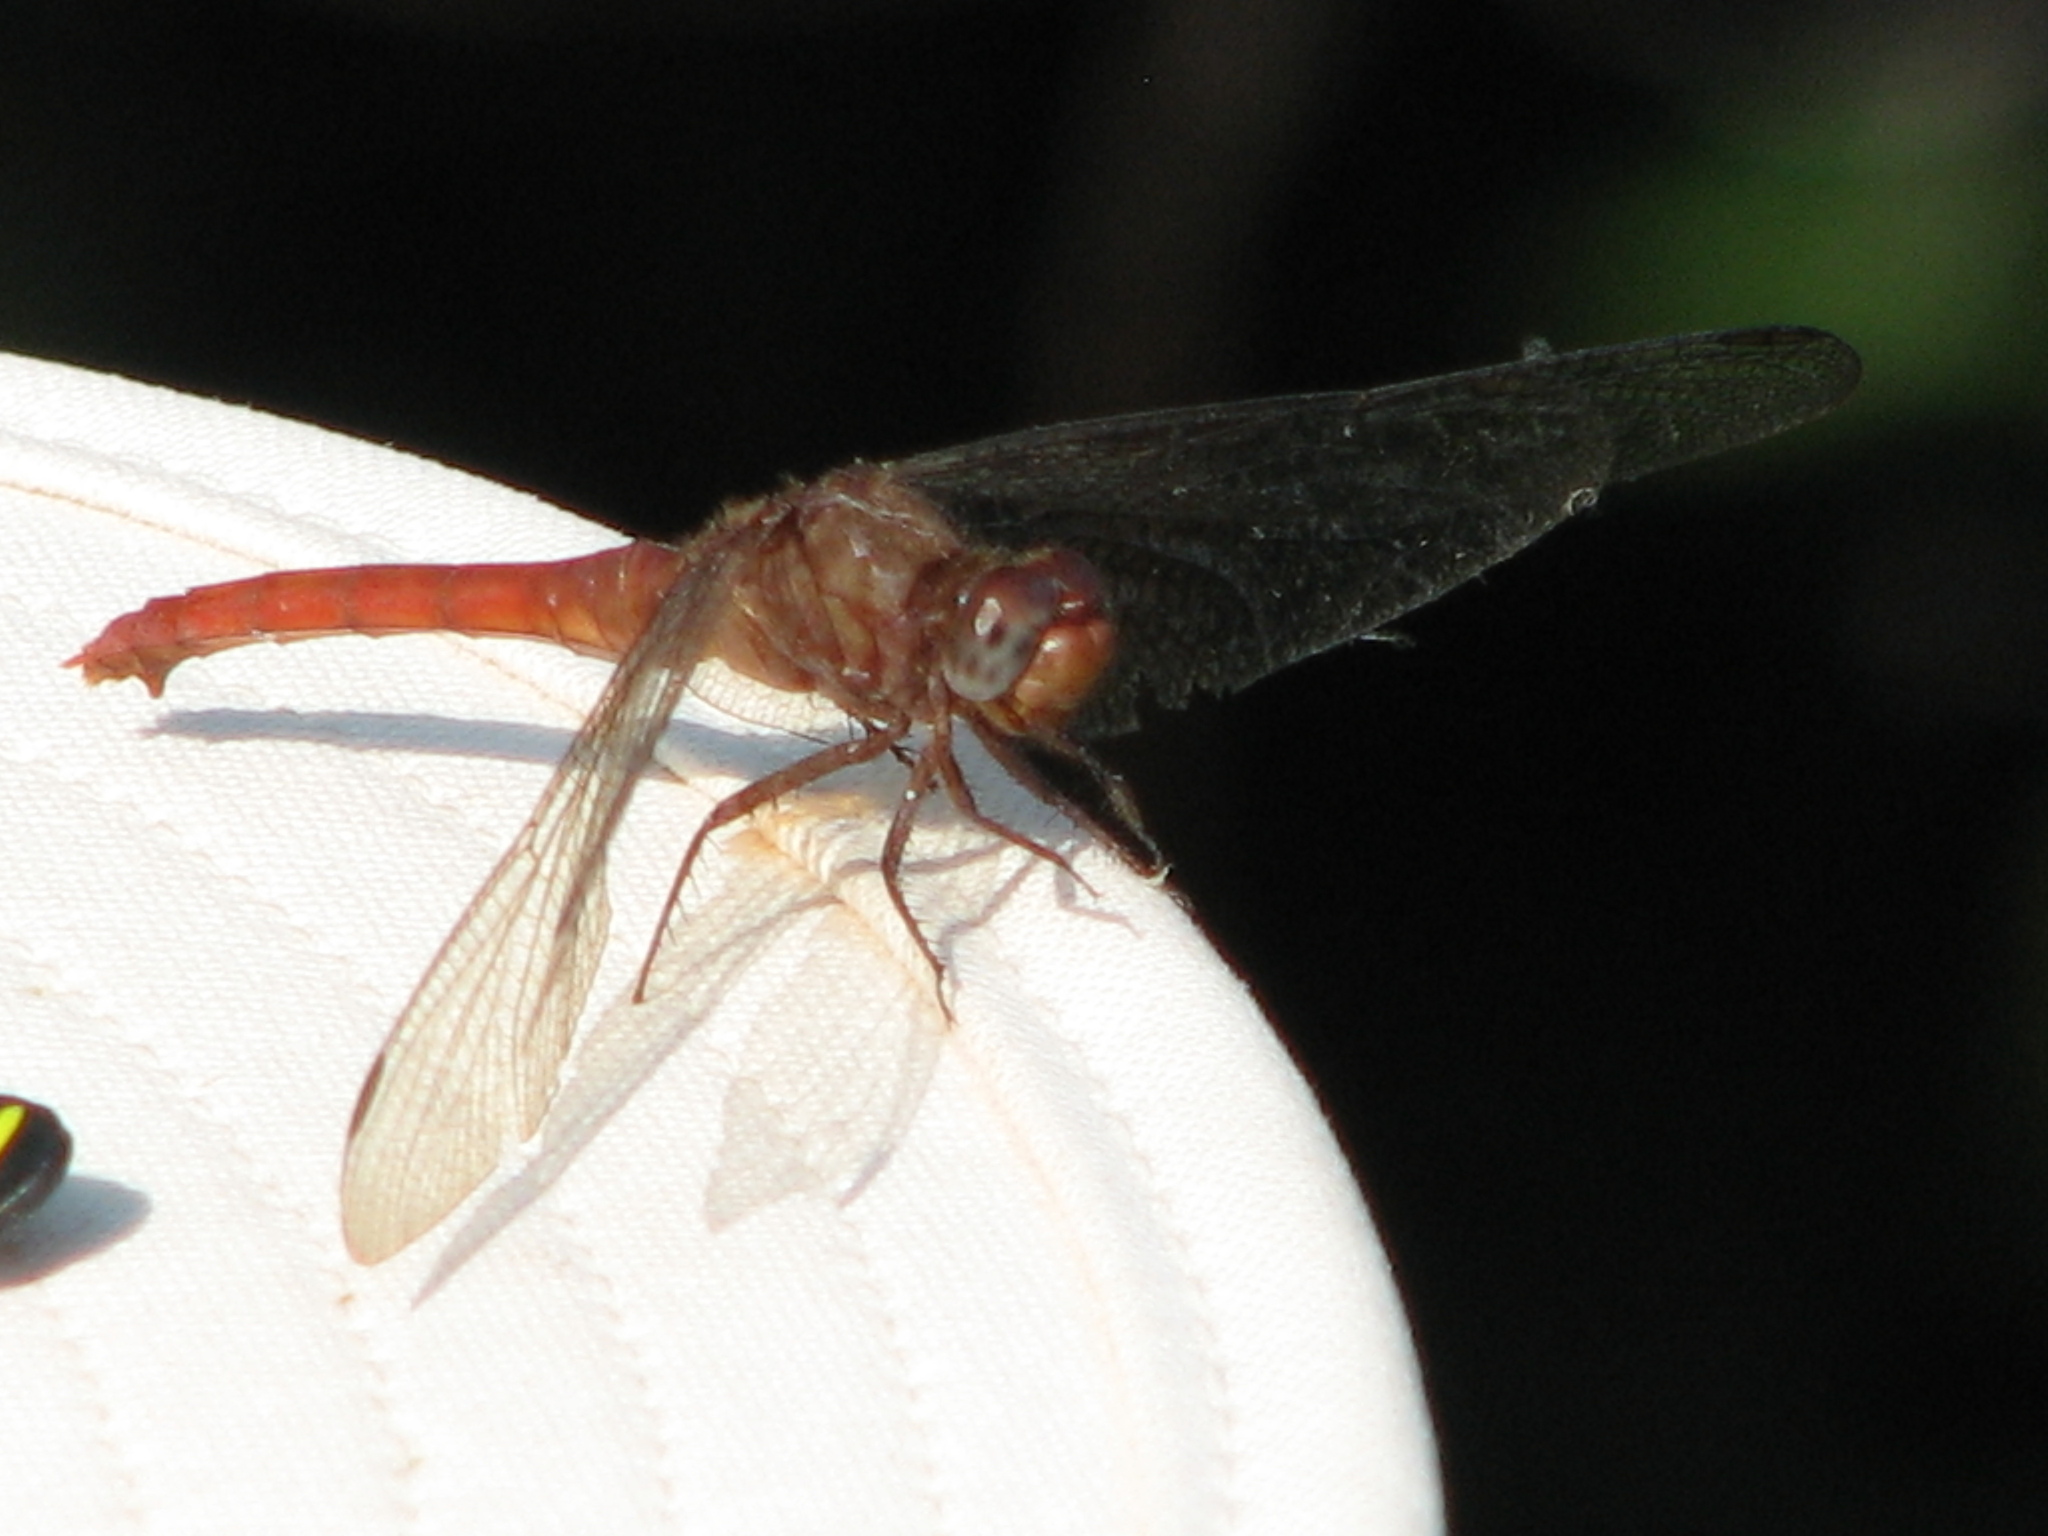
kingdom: Animalia
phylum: Arthropoda
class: Insecta
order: Odonata
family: Libellulidae
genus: Erythemis
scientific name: Erythemis mithroides
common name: Claret pondhawk
